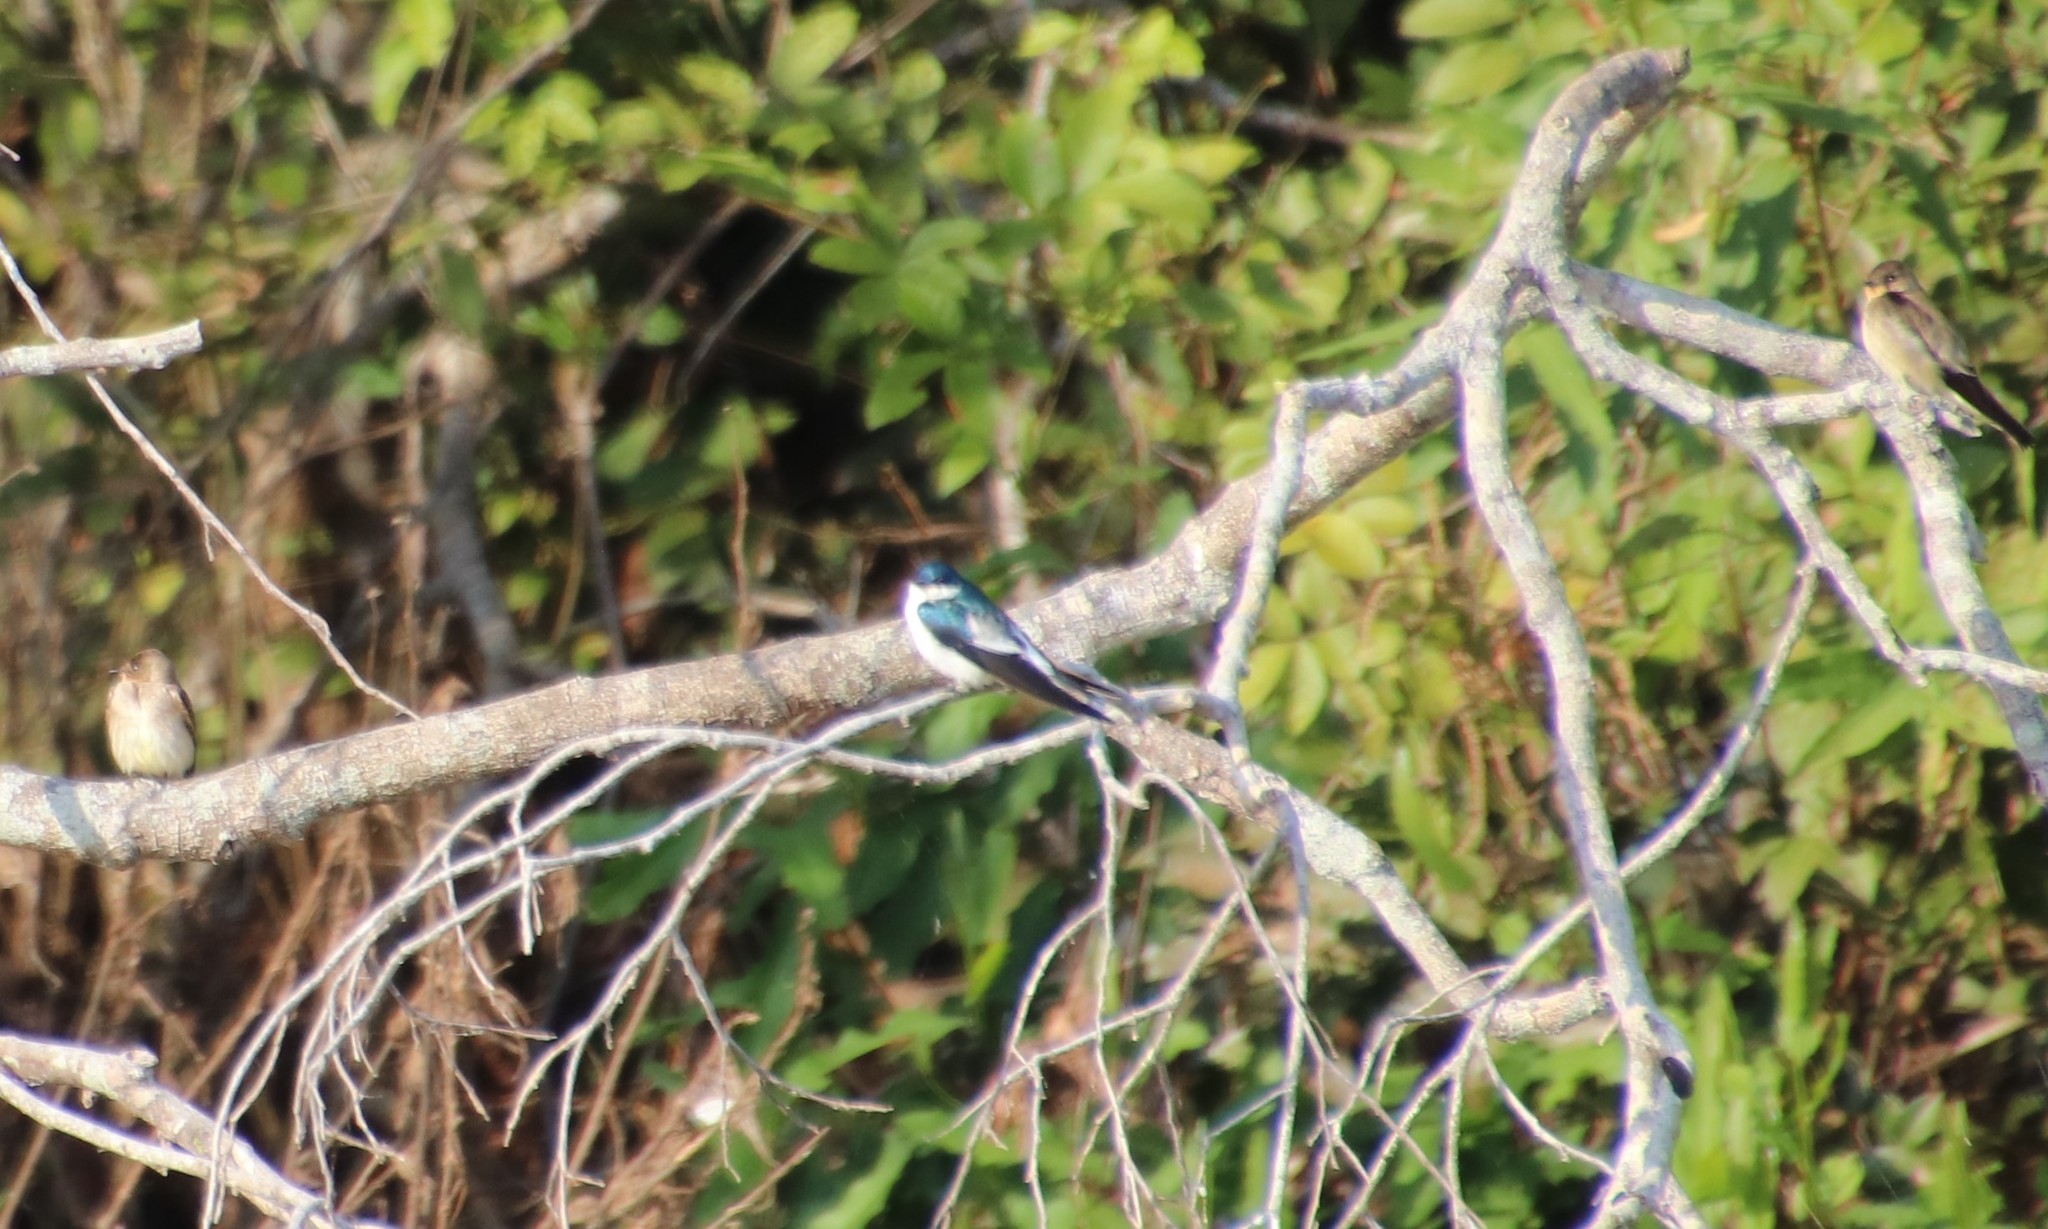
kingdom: Animalia
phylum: Chordata
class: Aves
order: Passeriformes
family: Hirundinidae
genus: Tachycineta
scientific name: Tachycineta albiventer
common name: White-winged swallow
